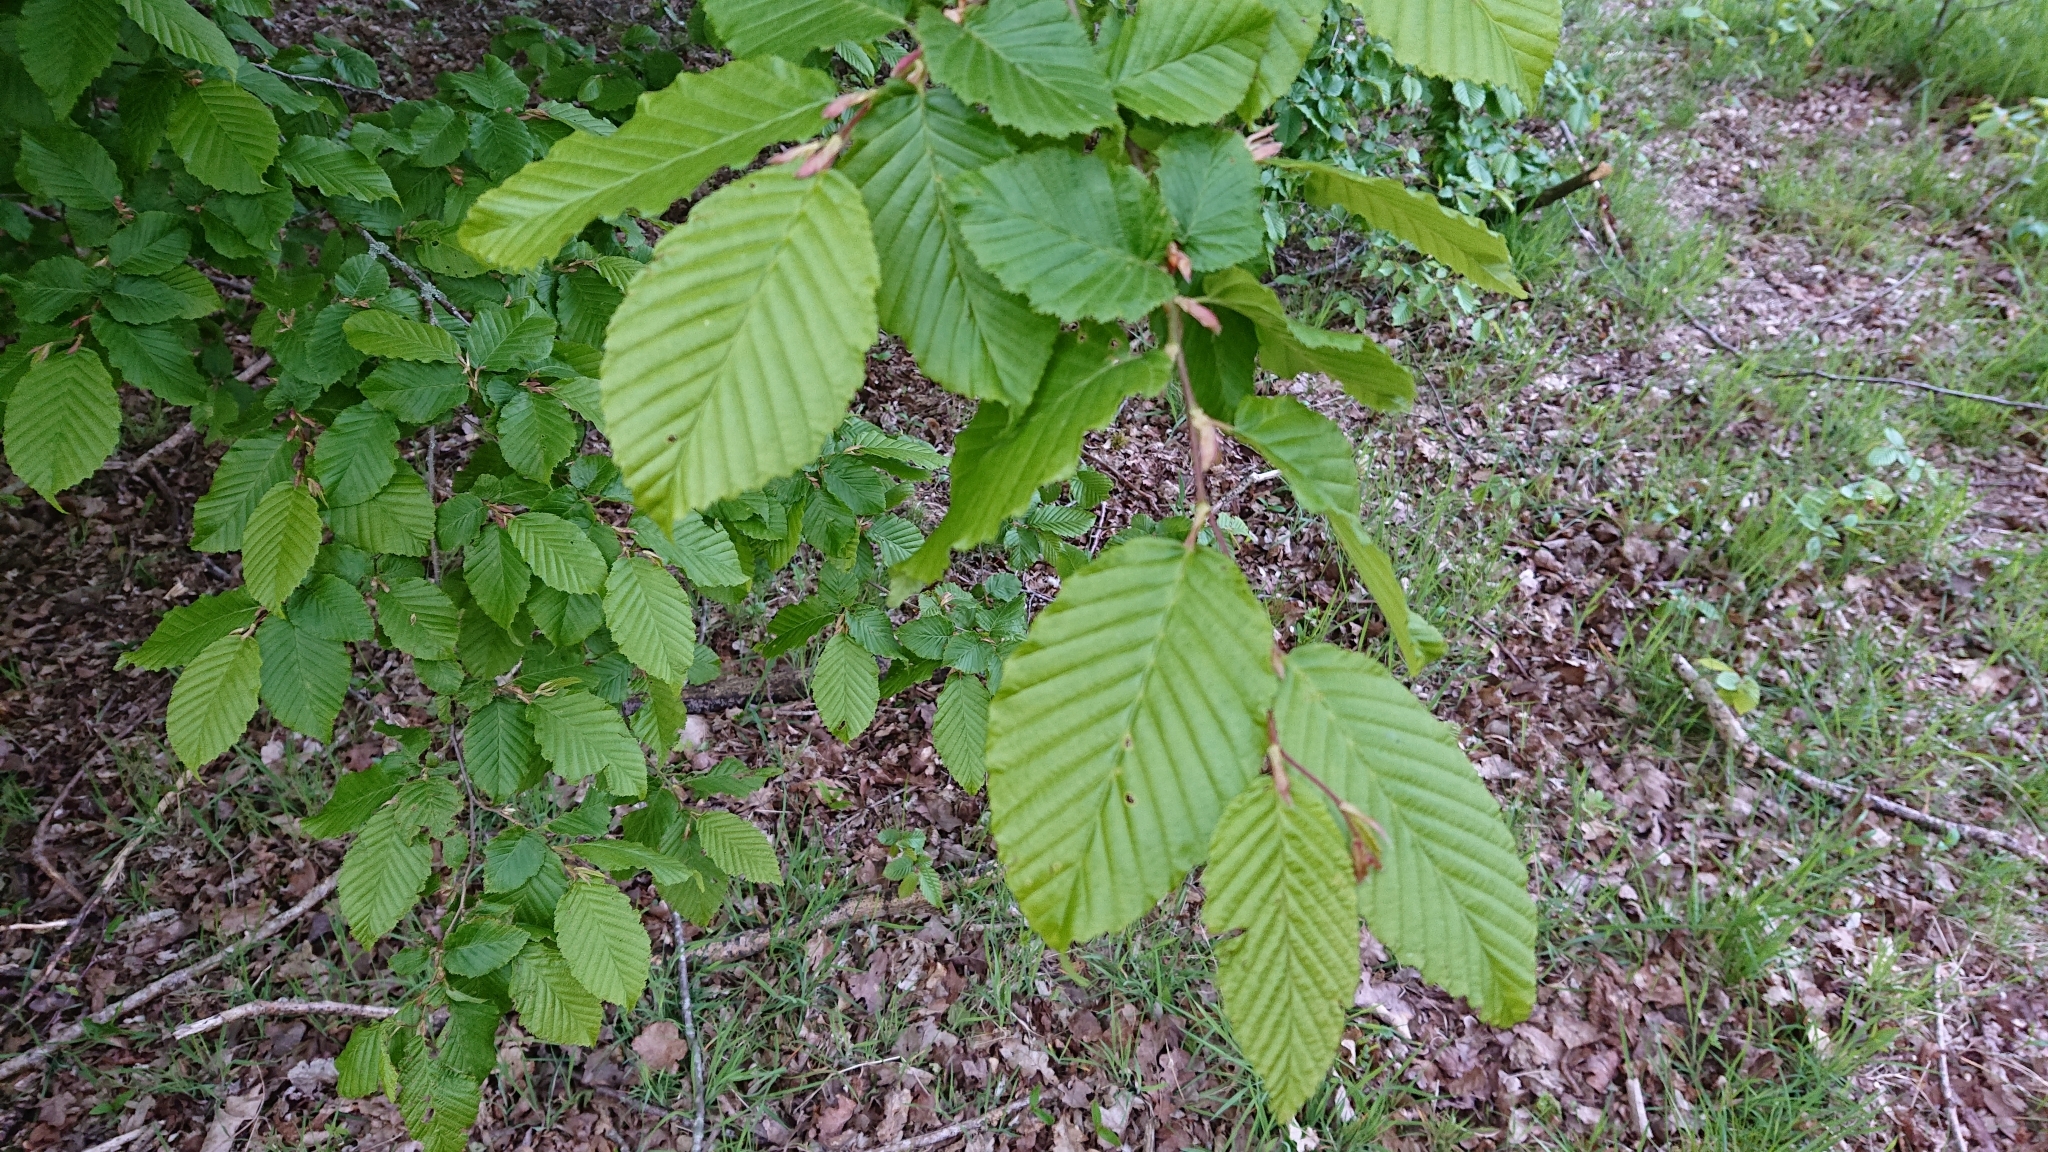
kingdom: Plantae
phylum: Tracheophyta
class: Magnoliopsida
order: Fagales
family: Betulaceae
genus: Carpinus
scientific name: Carpinus betulus
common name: Hornbeam
